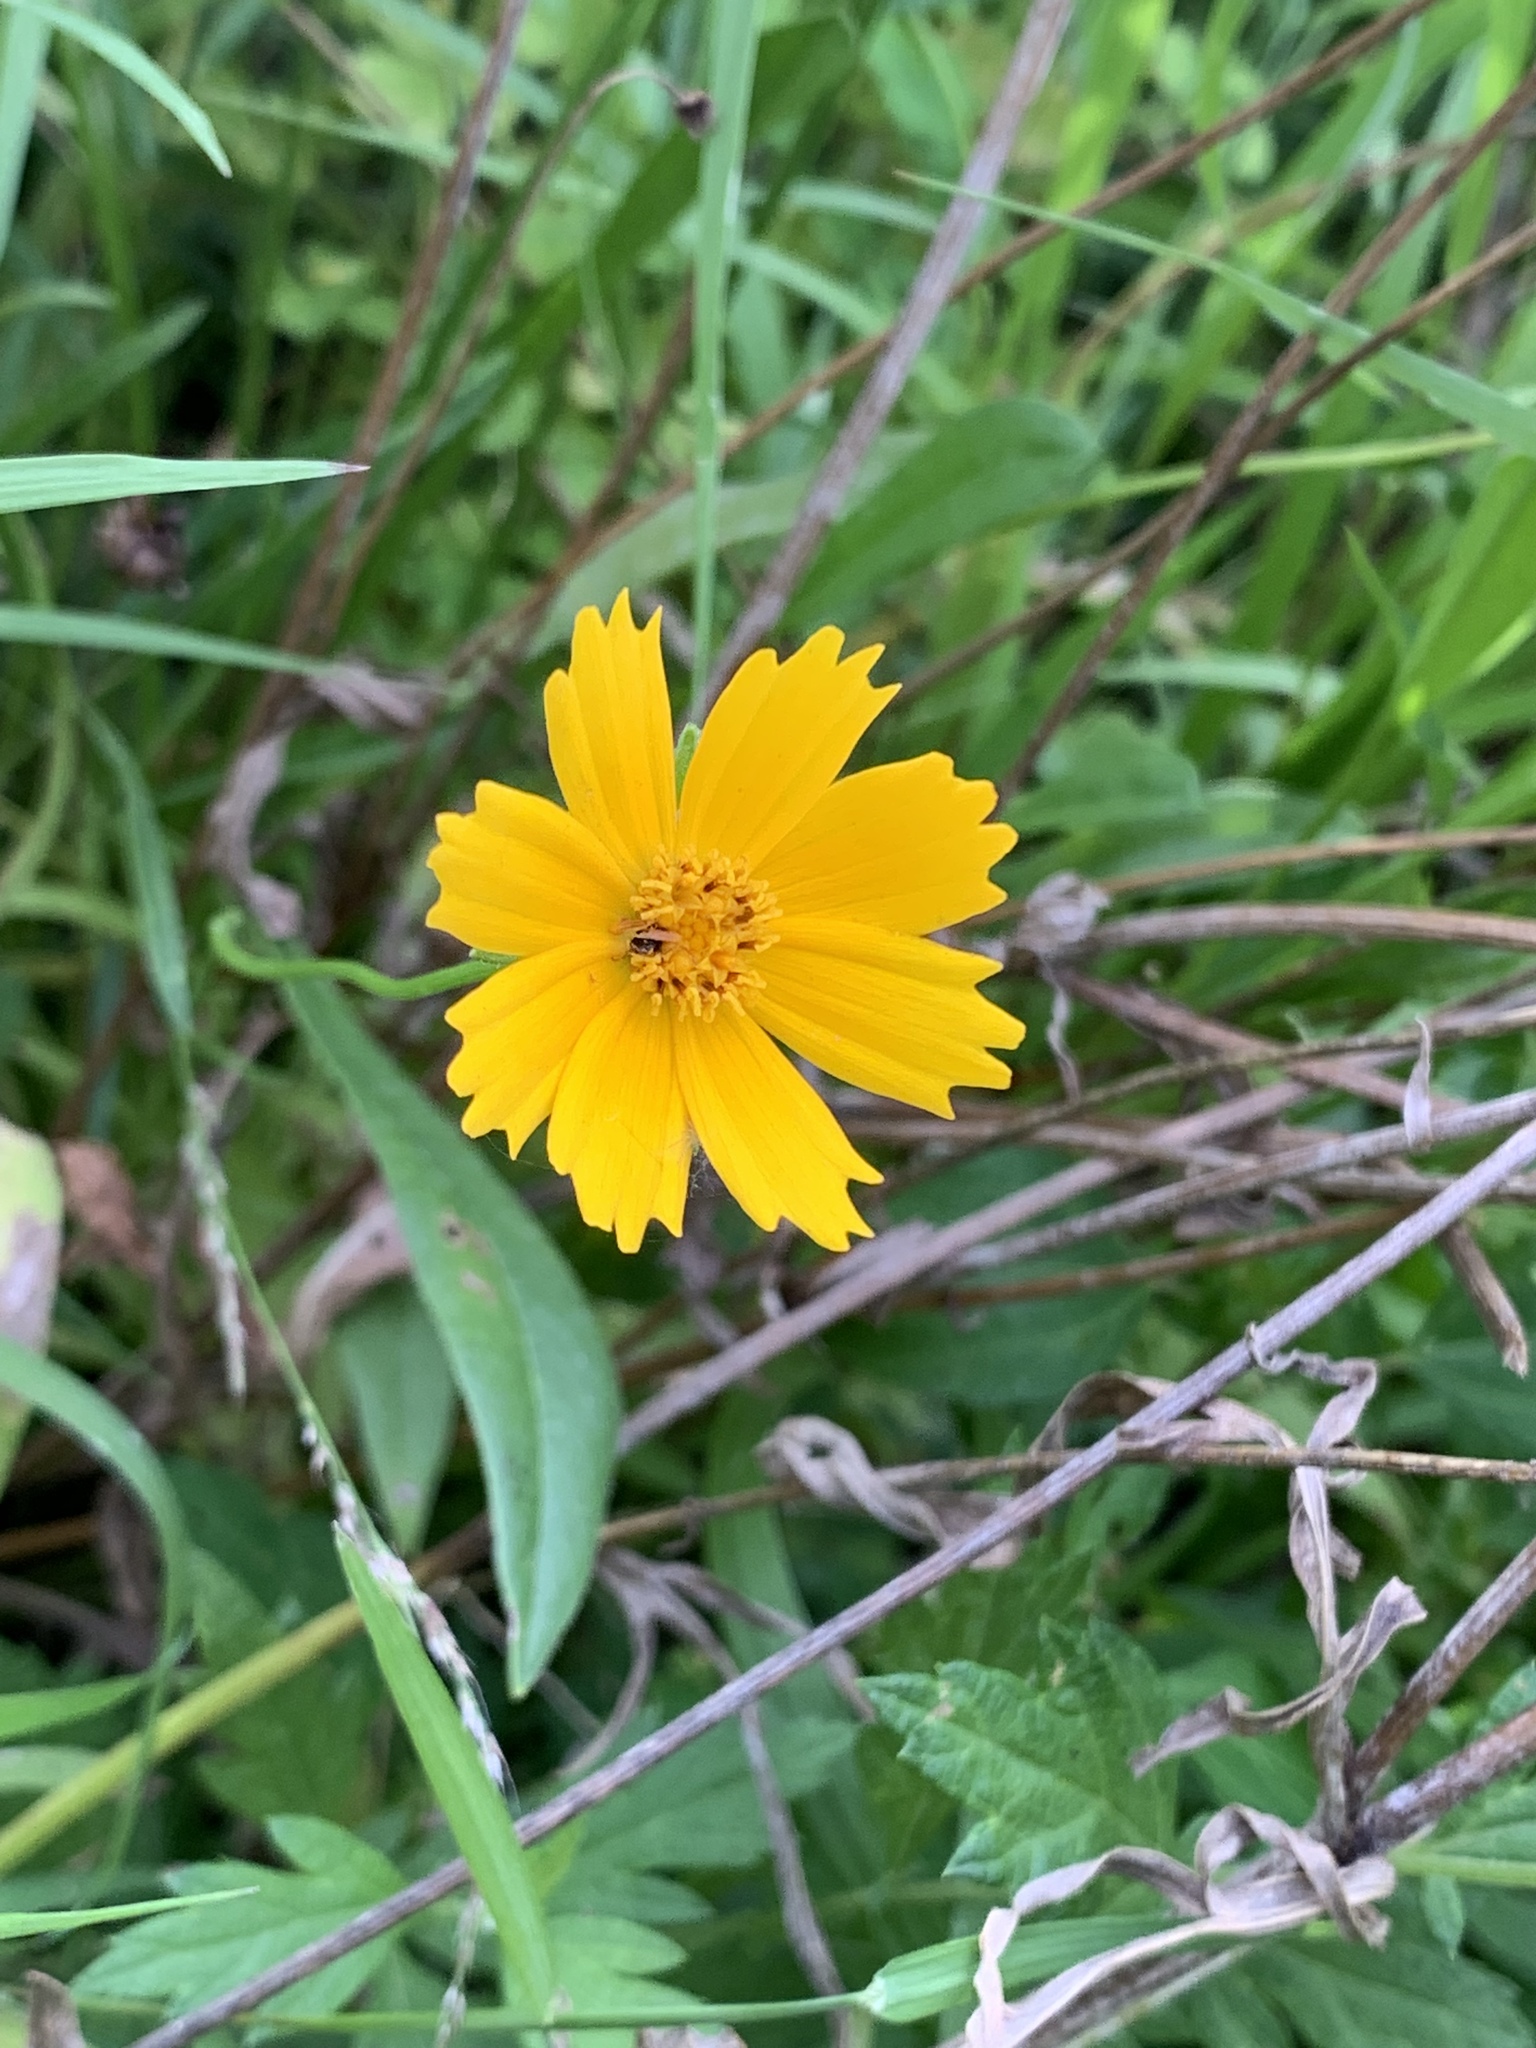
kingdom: Plantae
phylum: Tracheophyta
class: Magnoliopsida
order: Asterales
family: Asteraceae
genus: Coreopsis
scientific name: Coreopsis lanceolata
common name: Garden coreopsis
